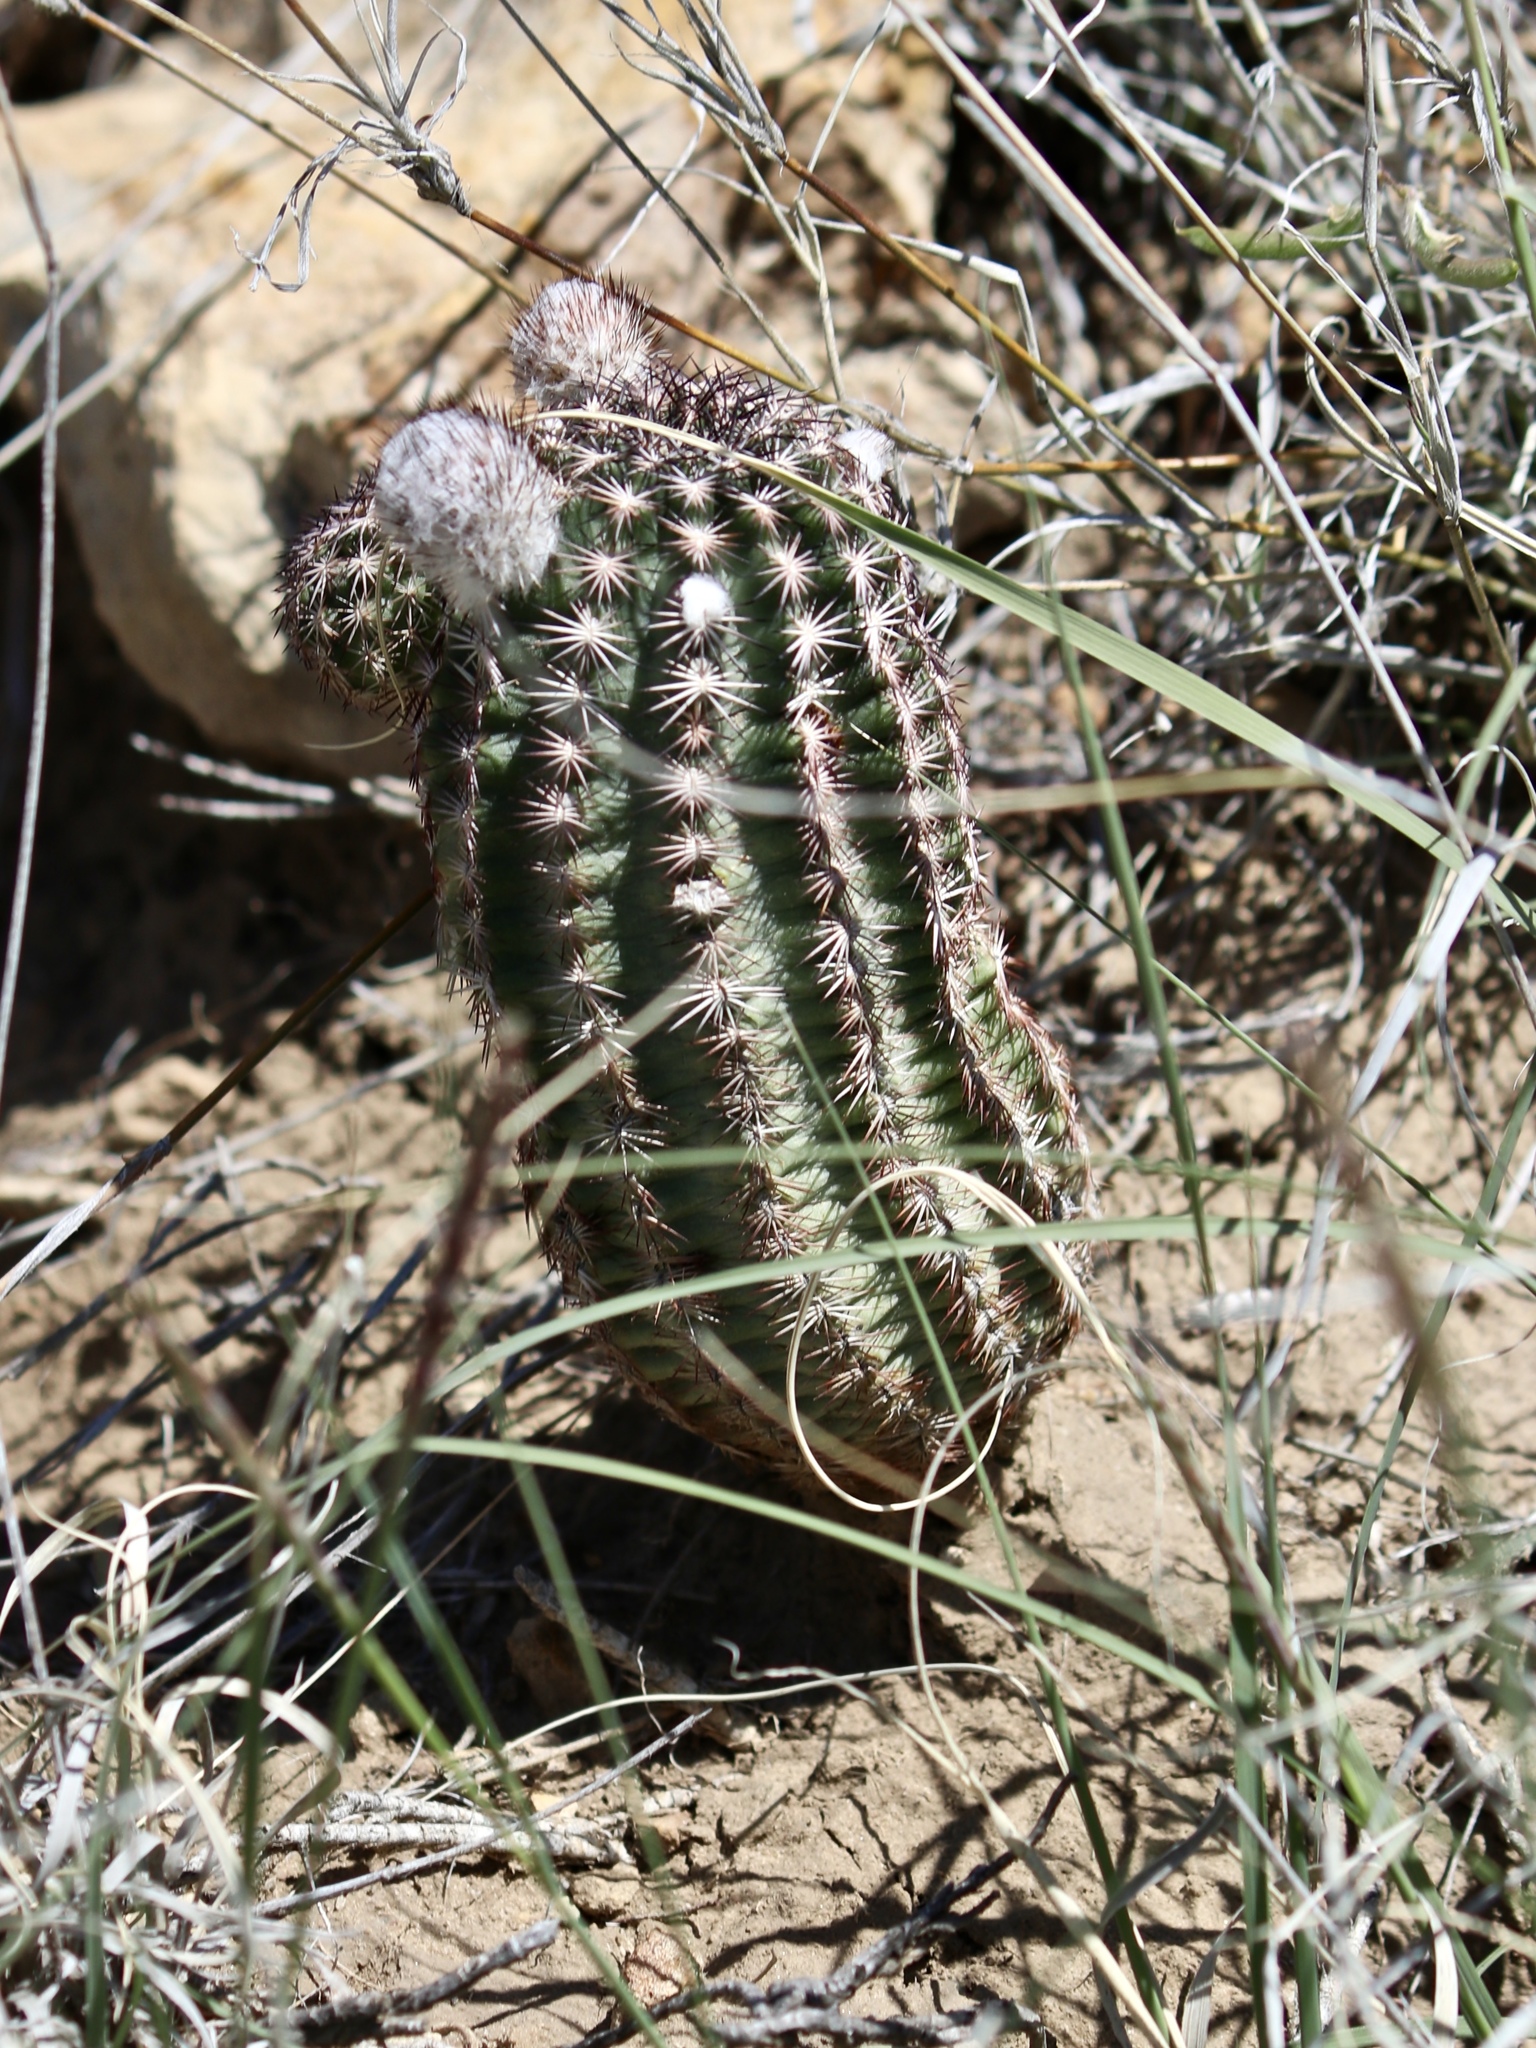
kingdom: Plantae
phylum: Tracheophyta
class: Magnoliopsida
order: Caryophyllales
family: Cactaceae
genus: Echinocereus
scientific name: Echinocereus reichenbachii
